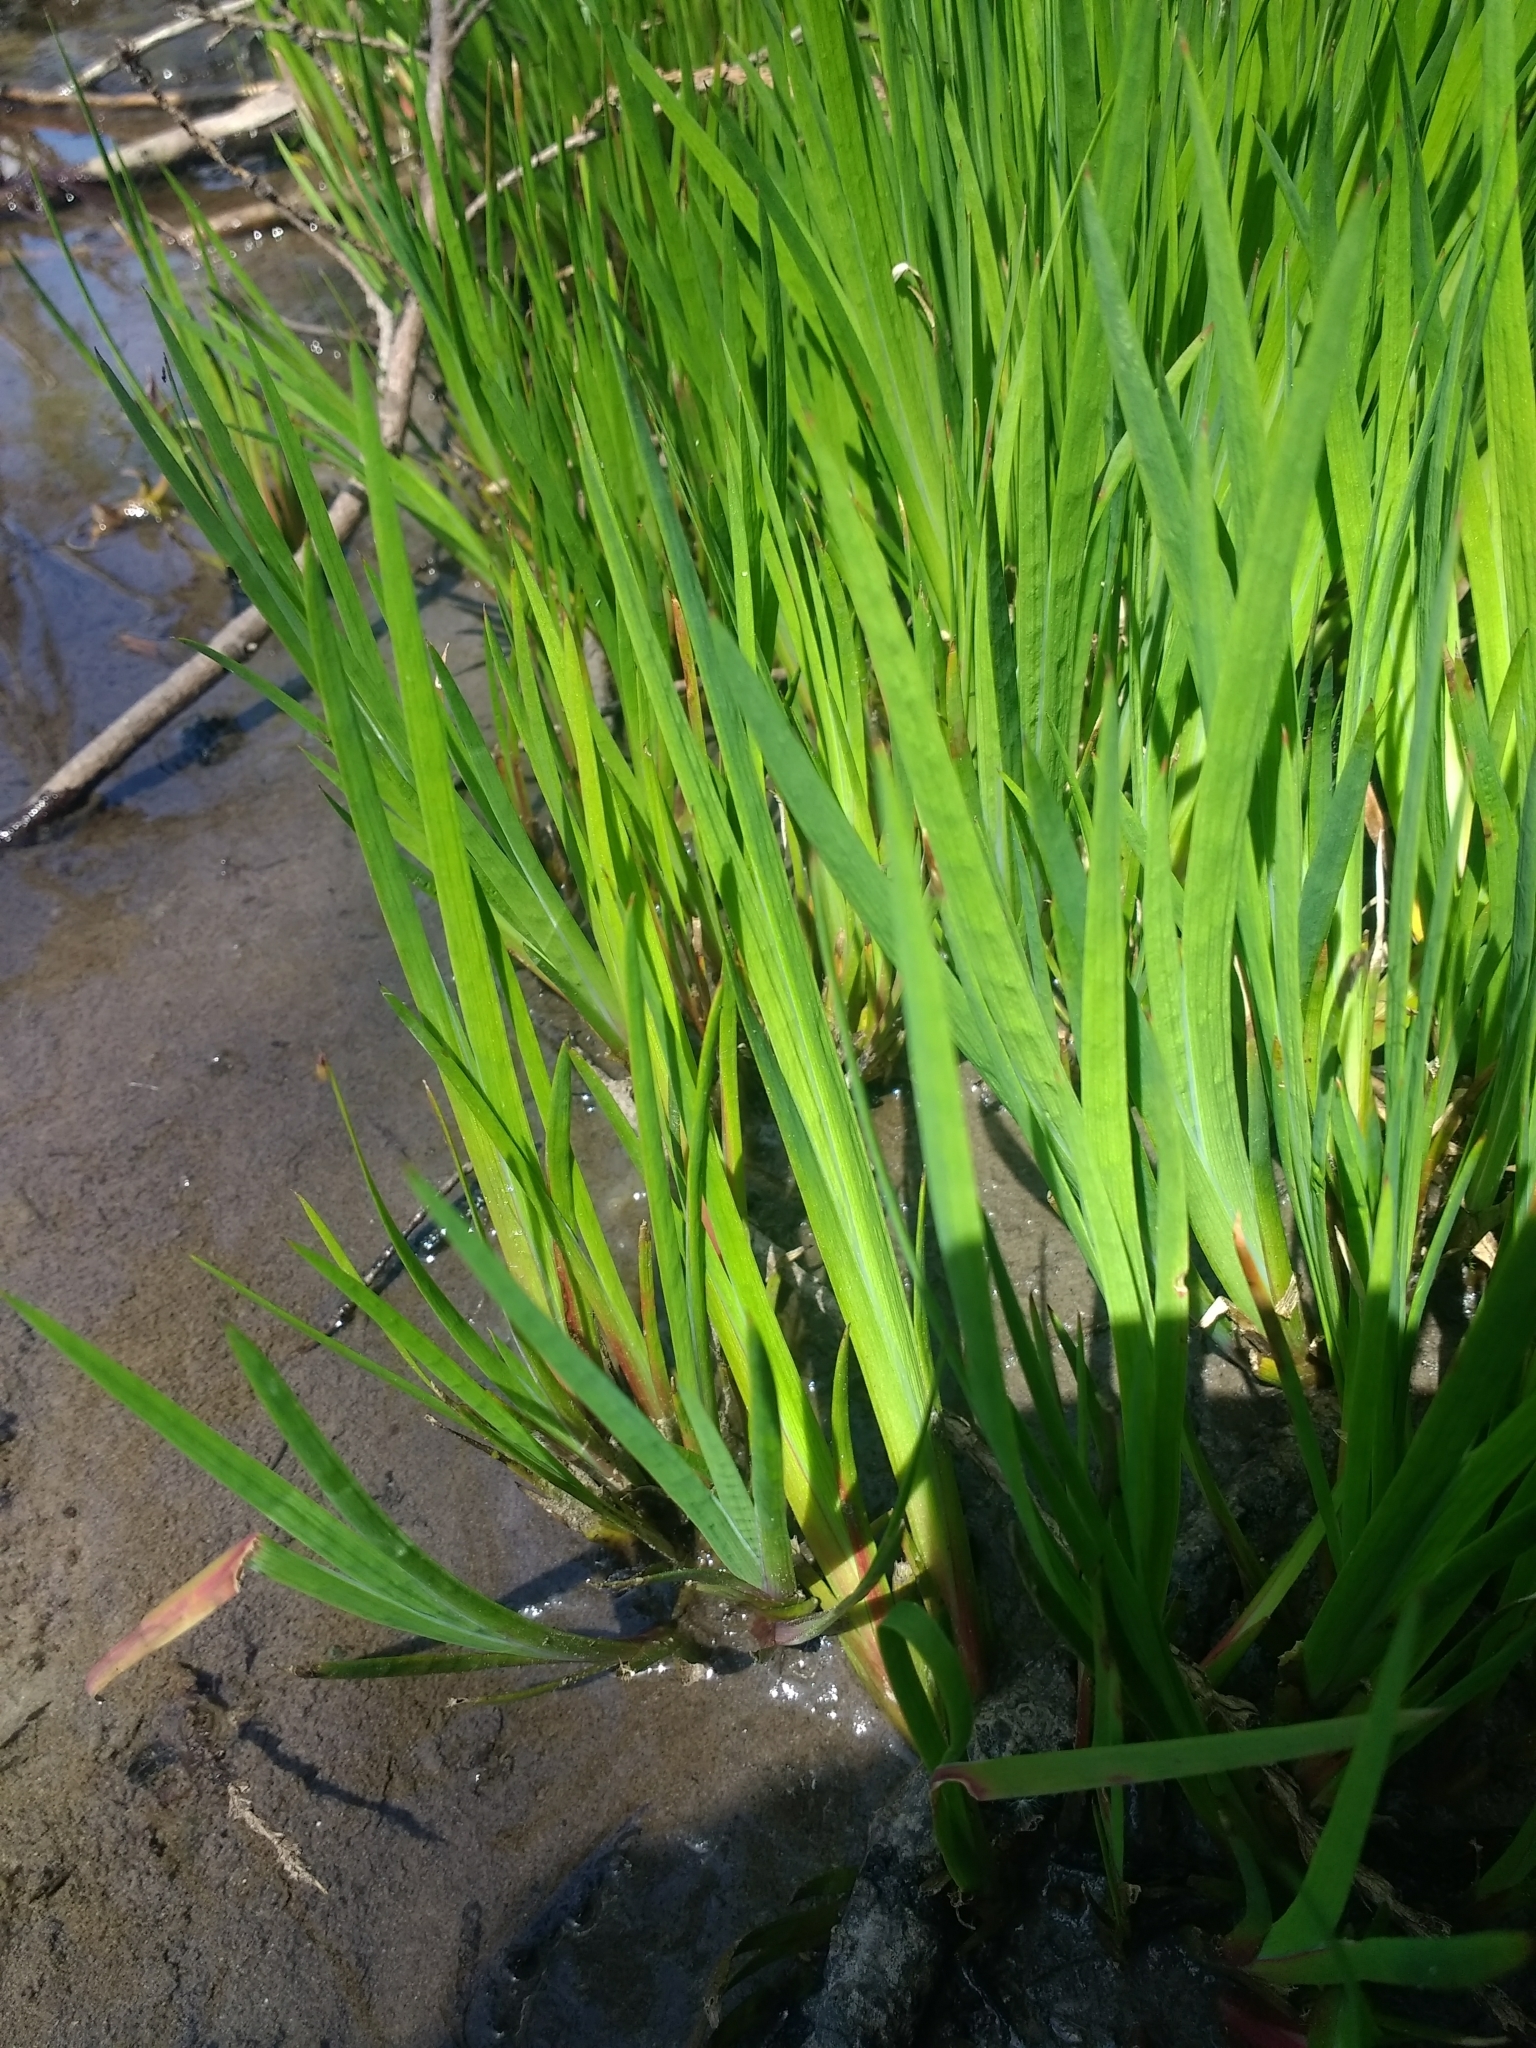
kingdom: Plantae
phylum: Tracheophyta
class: Liliopsida
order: Poales
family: Juncaceae
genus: Juncus
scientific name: Juncus ensifolius
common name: Sword-leaved rush
